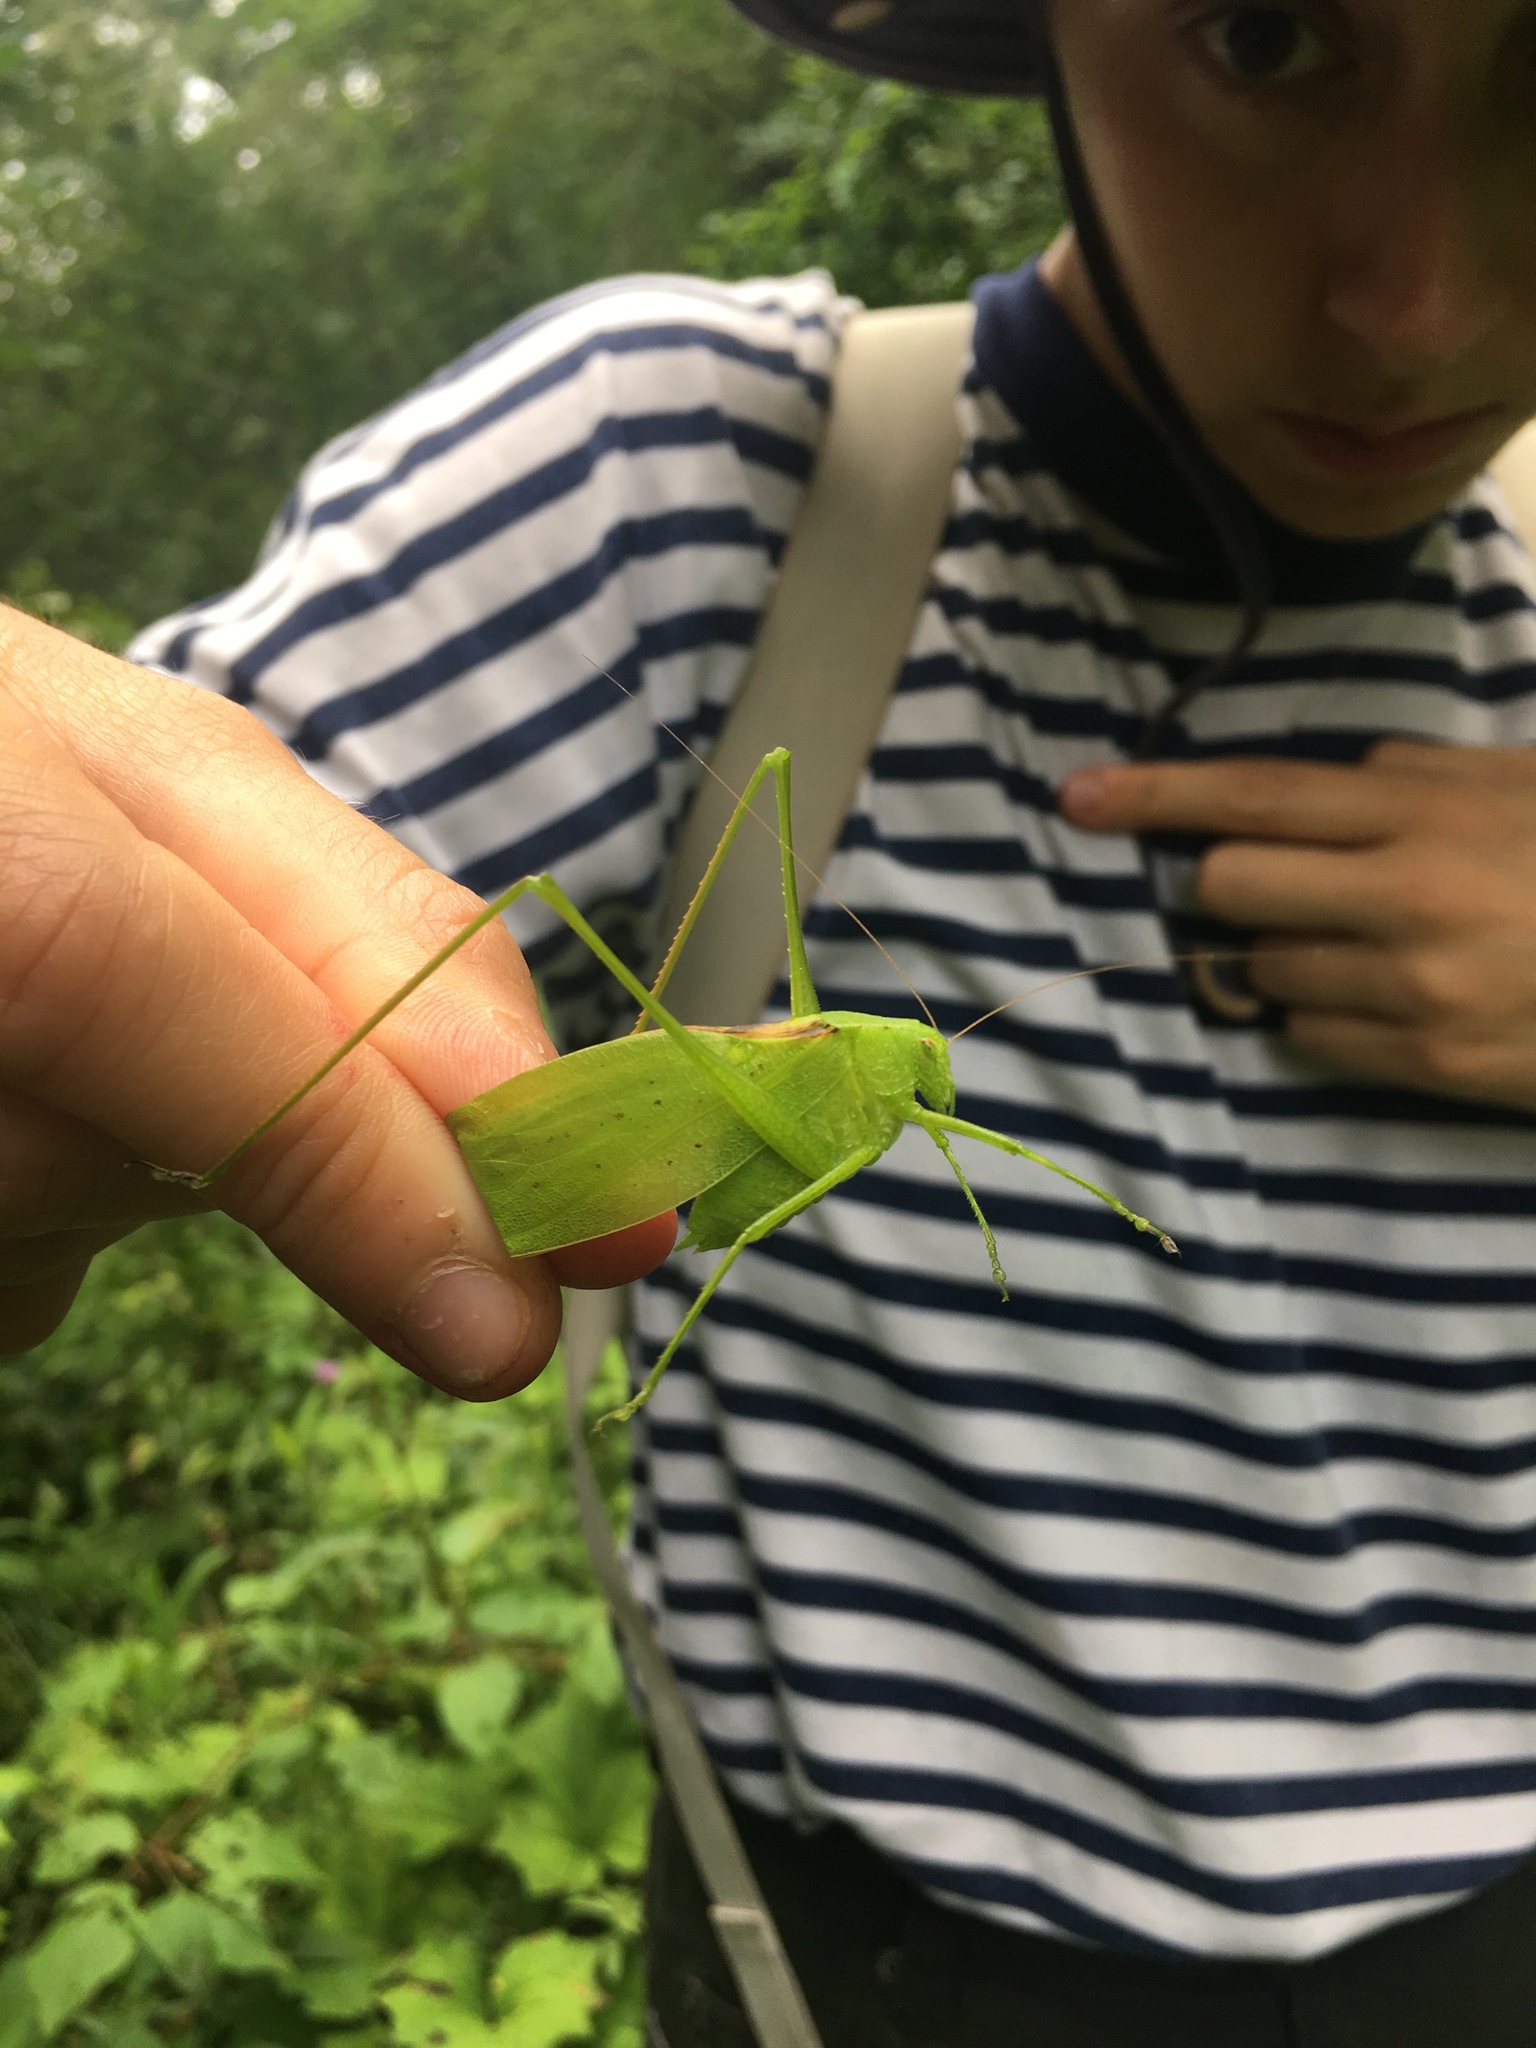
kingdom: Animalia
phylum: Arthropoda
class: Insecta
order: Orthoptera
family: Tettigoniidae
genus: Amblycorypha
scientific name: Amblycorypha oblongifolia
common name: Oblong-winged katydid
